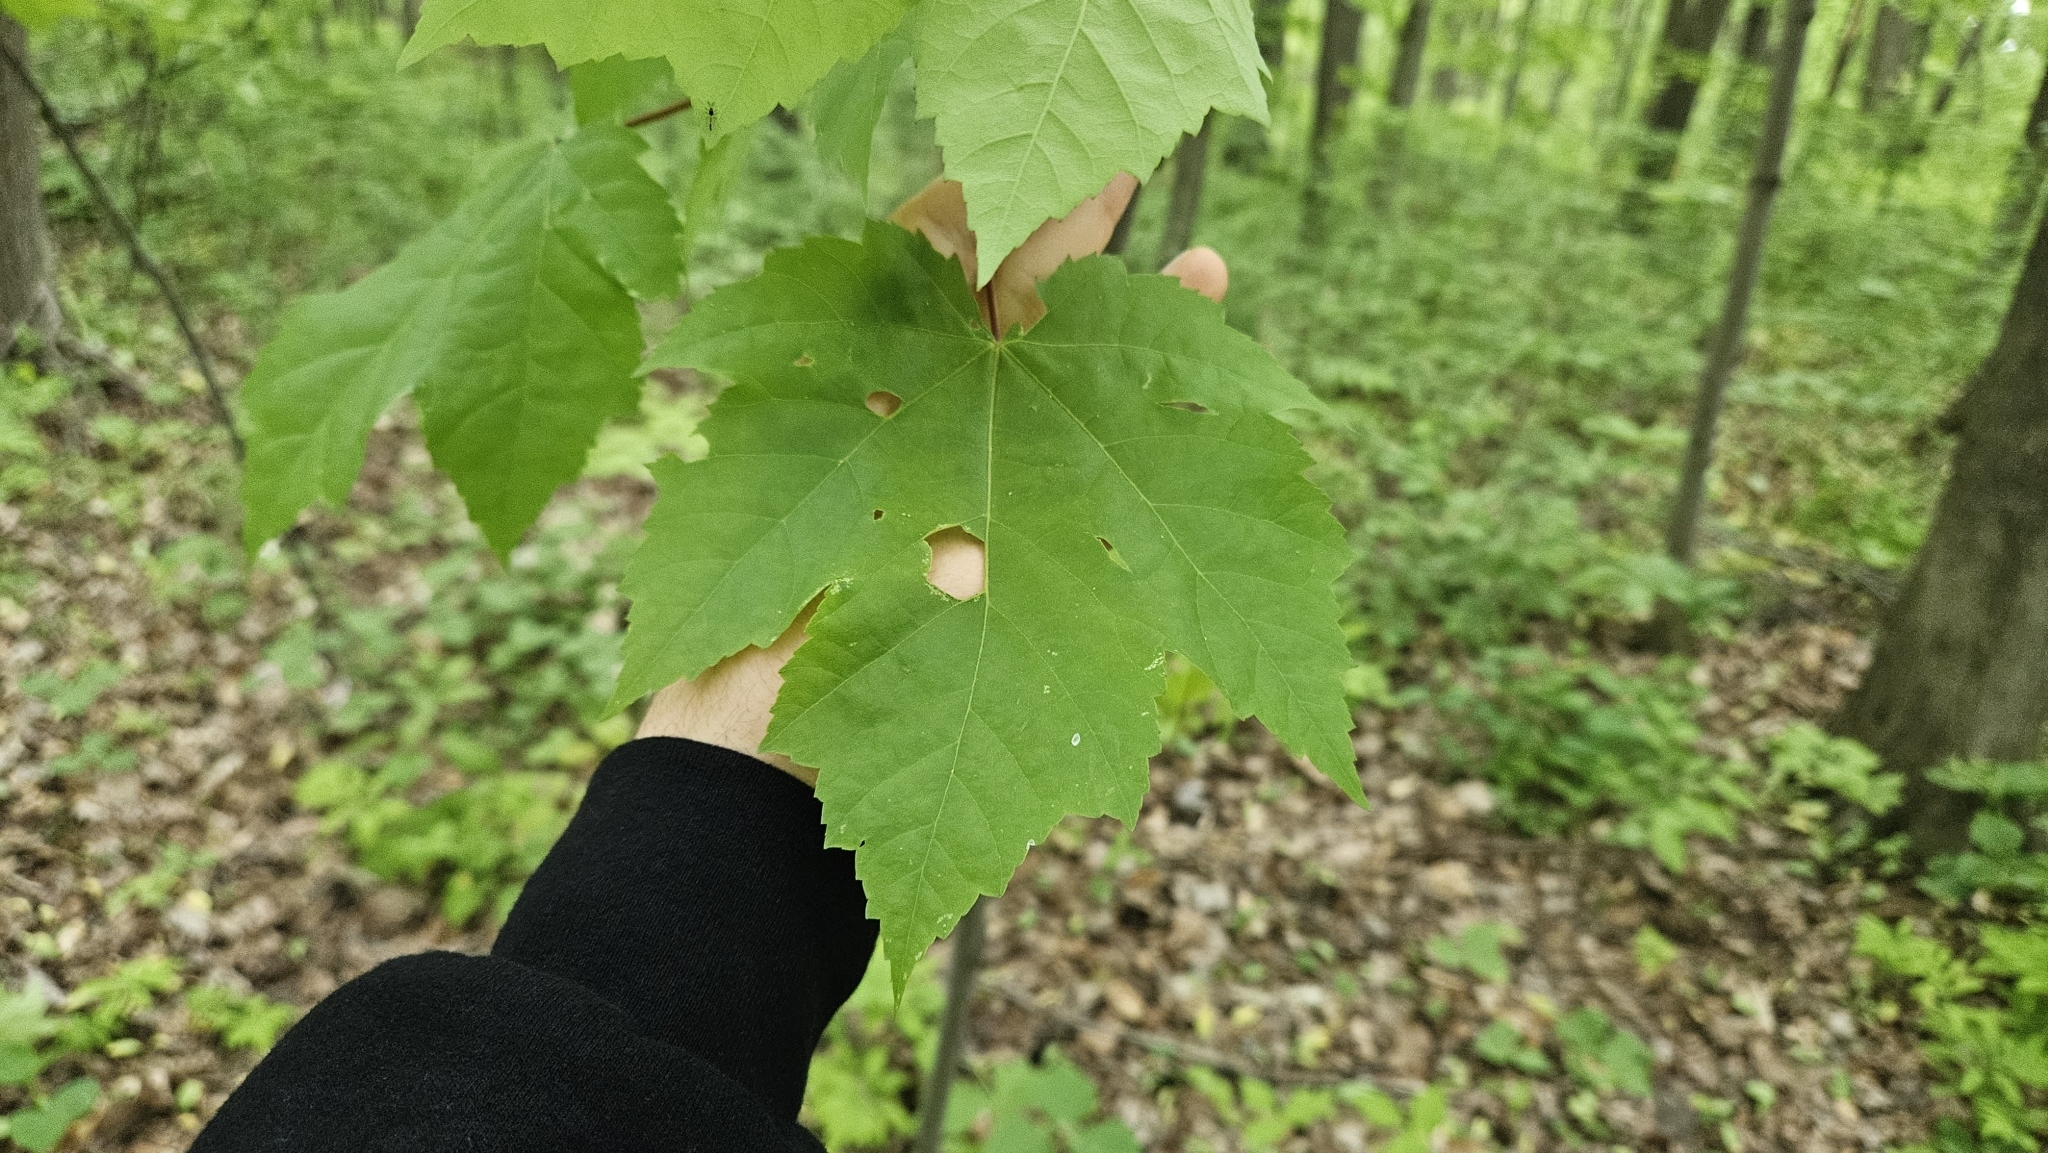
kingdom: Plantae
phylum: Tracheophyta
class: Magnoliopsida
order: Sapindales
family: Sapindaceae
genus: Acer
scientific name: Acer rubrum
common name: Red maple
